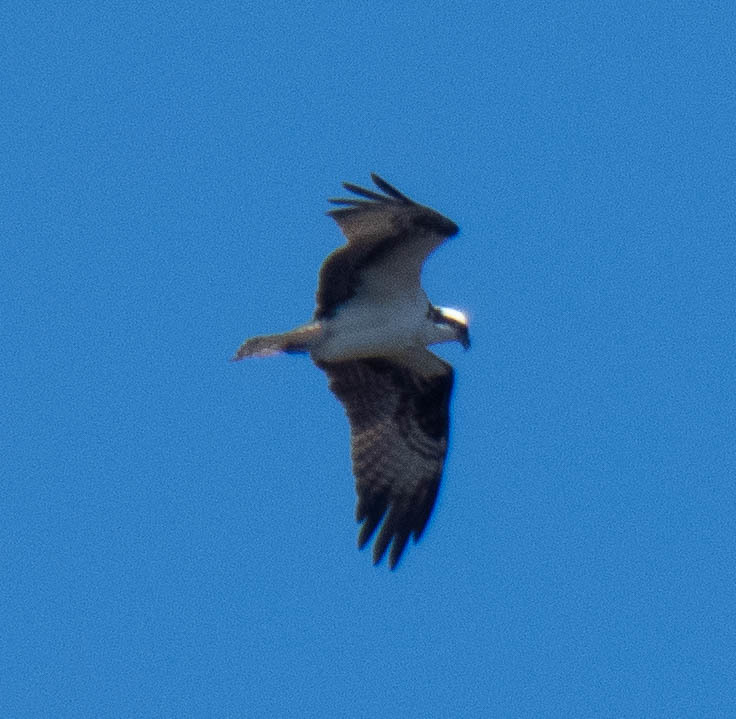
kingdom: Animalia
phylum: Chordata
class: Aves
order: Accipitriformes
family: Pandionidae
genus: Pandion
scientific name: Pandion haliaetus
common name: Osprey
